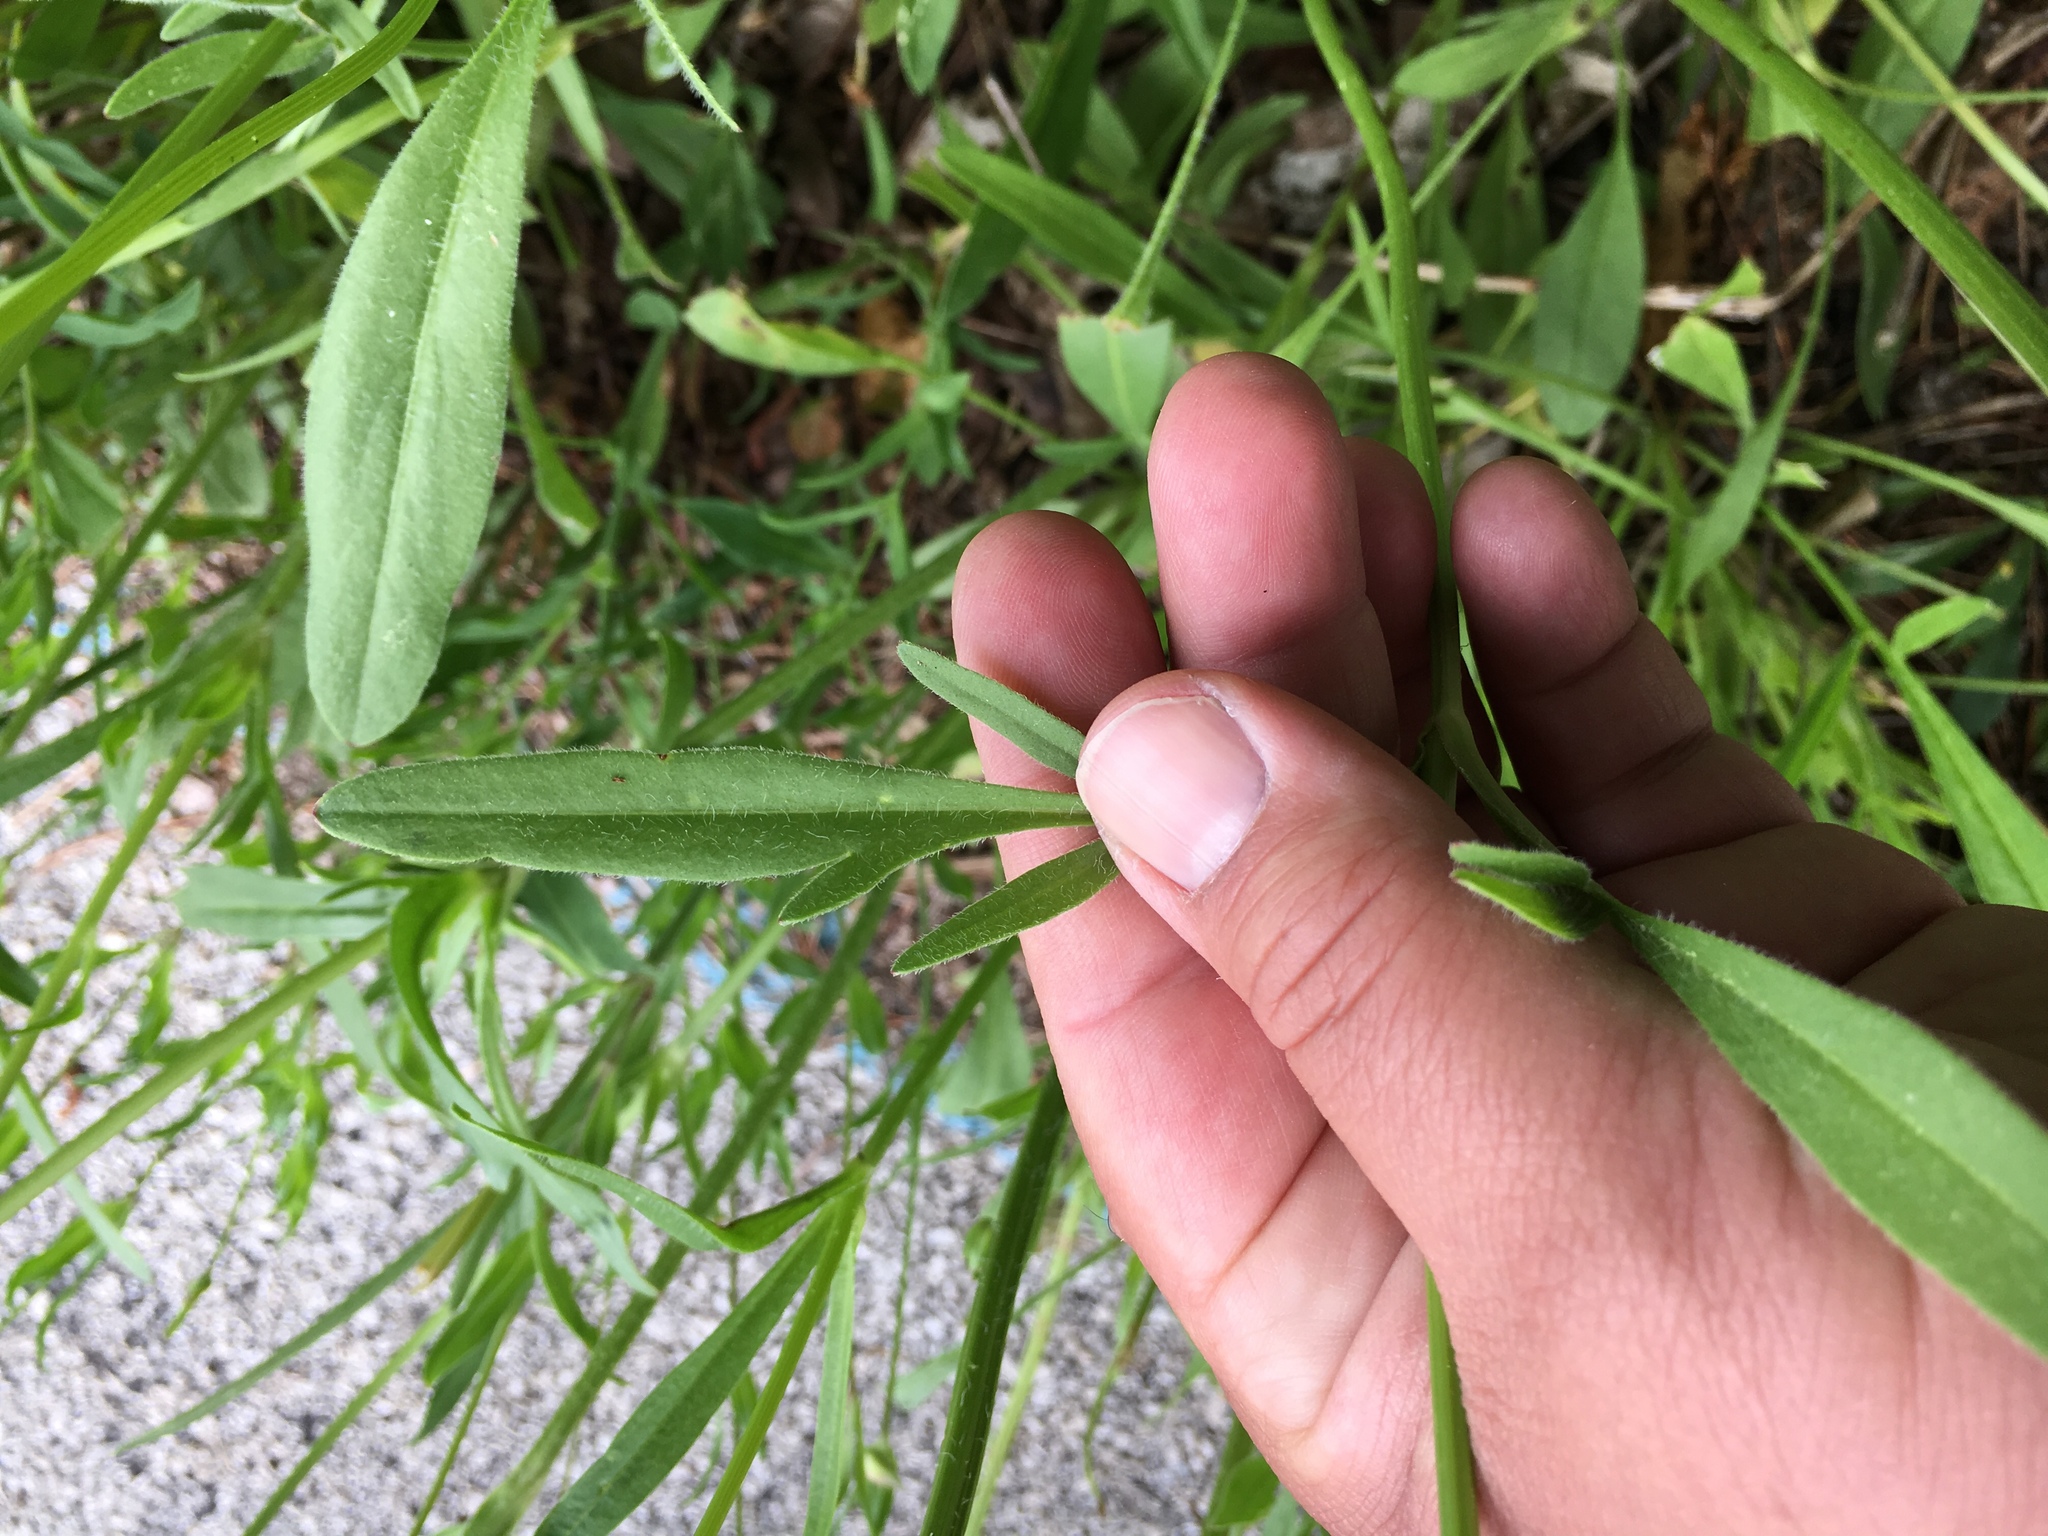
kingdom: Plantae
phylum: Tracheophyta
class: Magnoliopsida
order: Asterales
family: Asteraceae
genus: Coreopsis
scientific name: Coreopsis lanceolata
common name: Garden coreopsis
